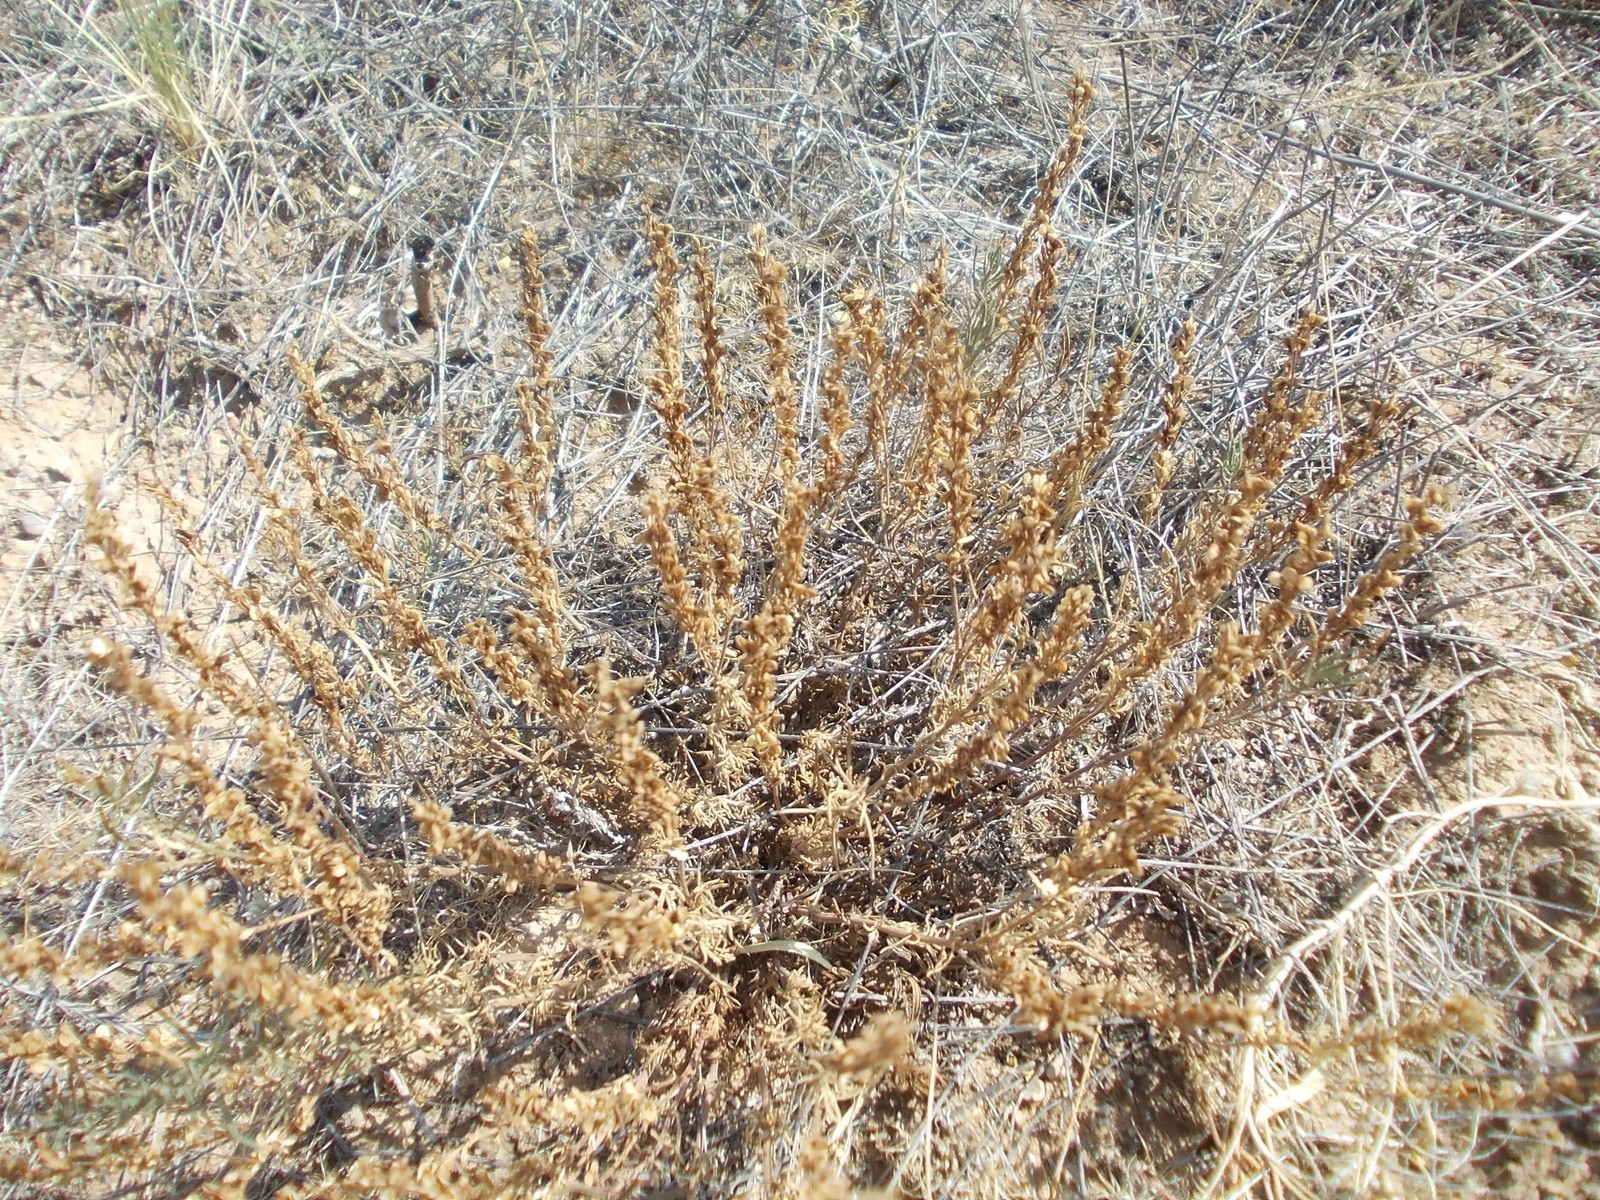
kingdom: Plantae
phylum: Tracheophyta
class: Magnoliopsida
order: Lamiales
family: Plantaginaceae
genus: Veronica
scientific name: Veronica multifida
